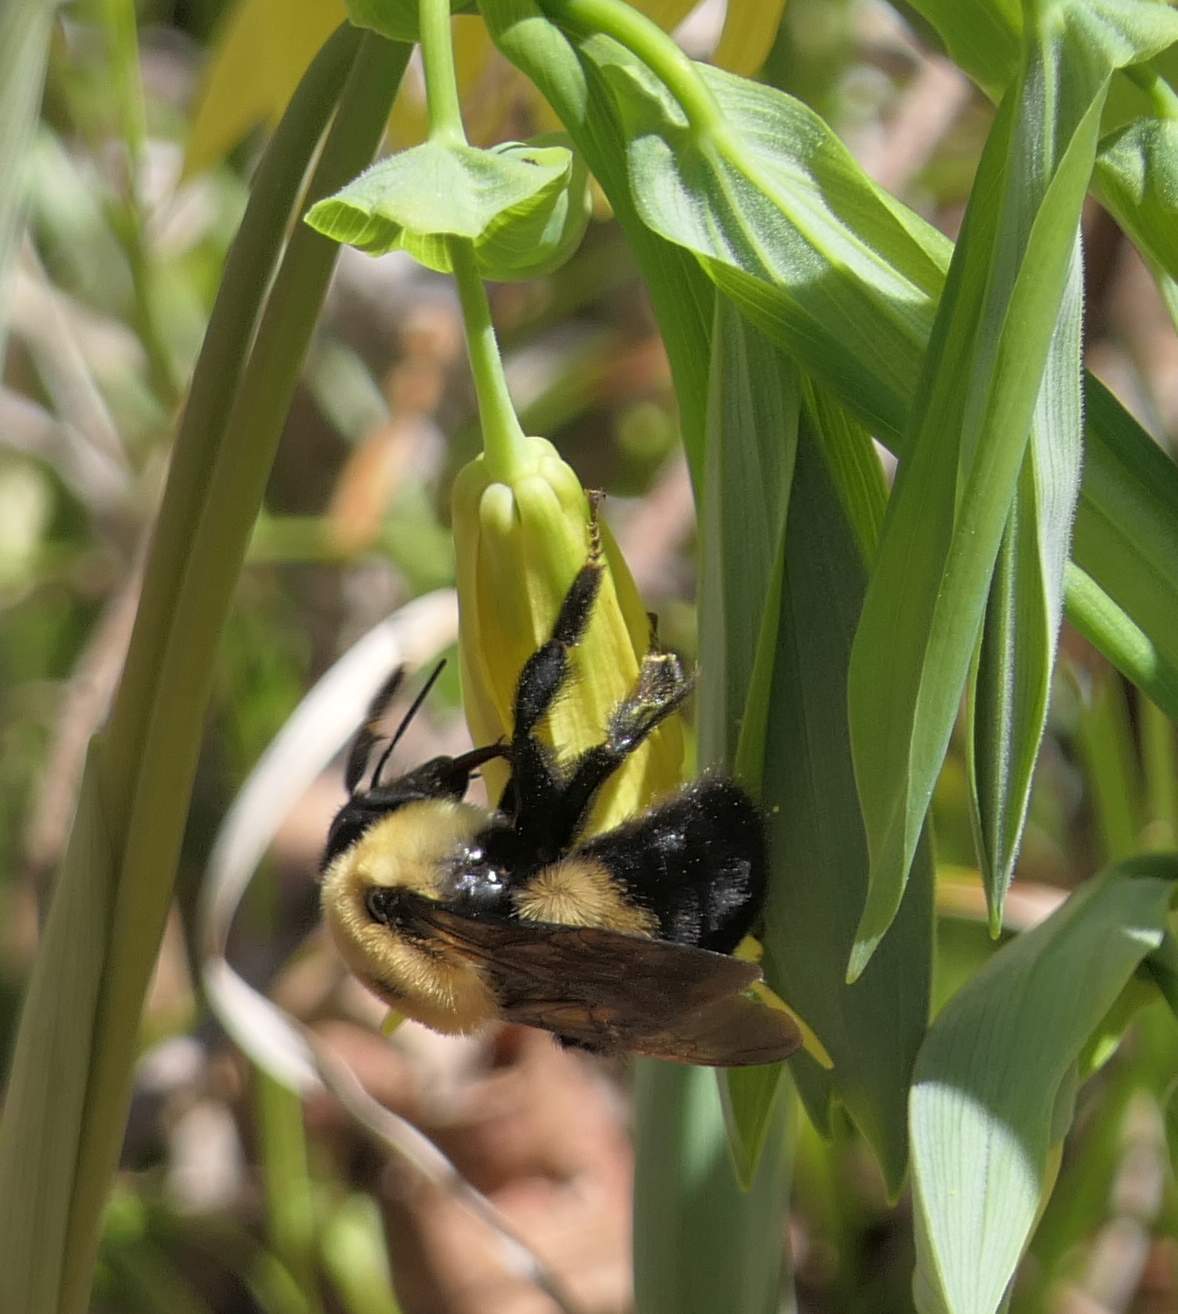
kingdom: Animalia
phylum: Arthropoda
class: Insecta
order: Hymenoptera
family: Apidae
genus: Bombus
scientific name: Bombus griseocollis
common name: Brown-belted bumble bee
